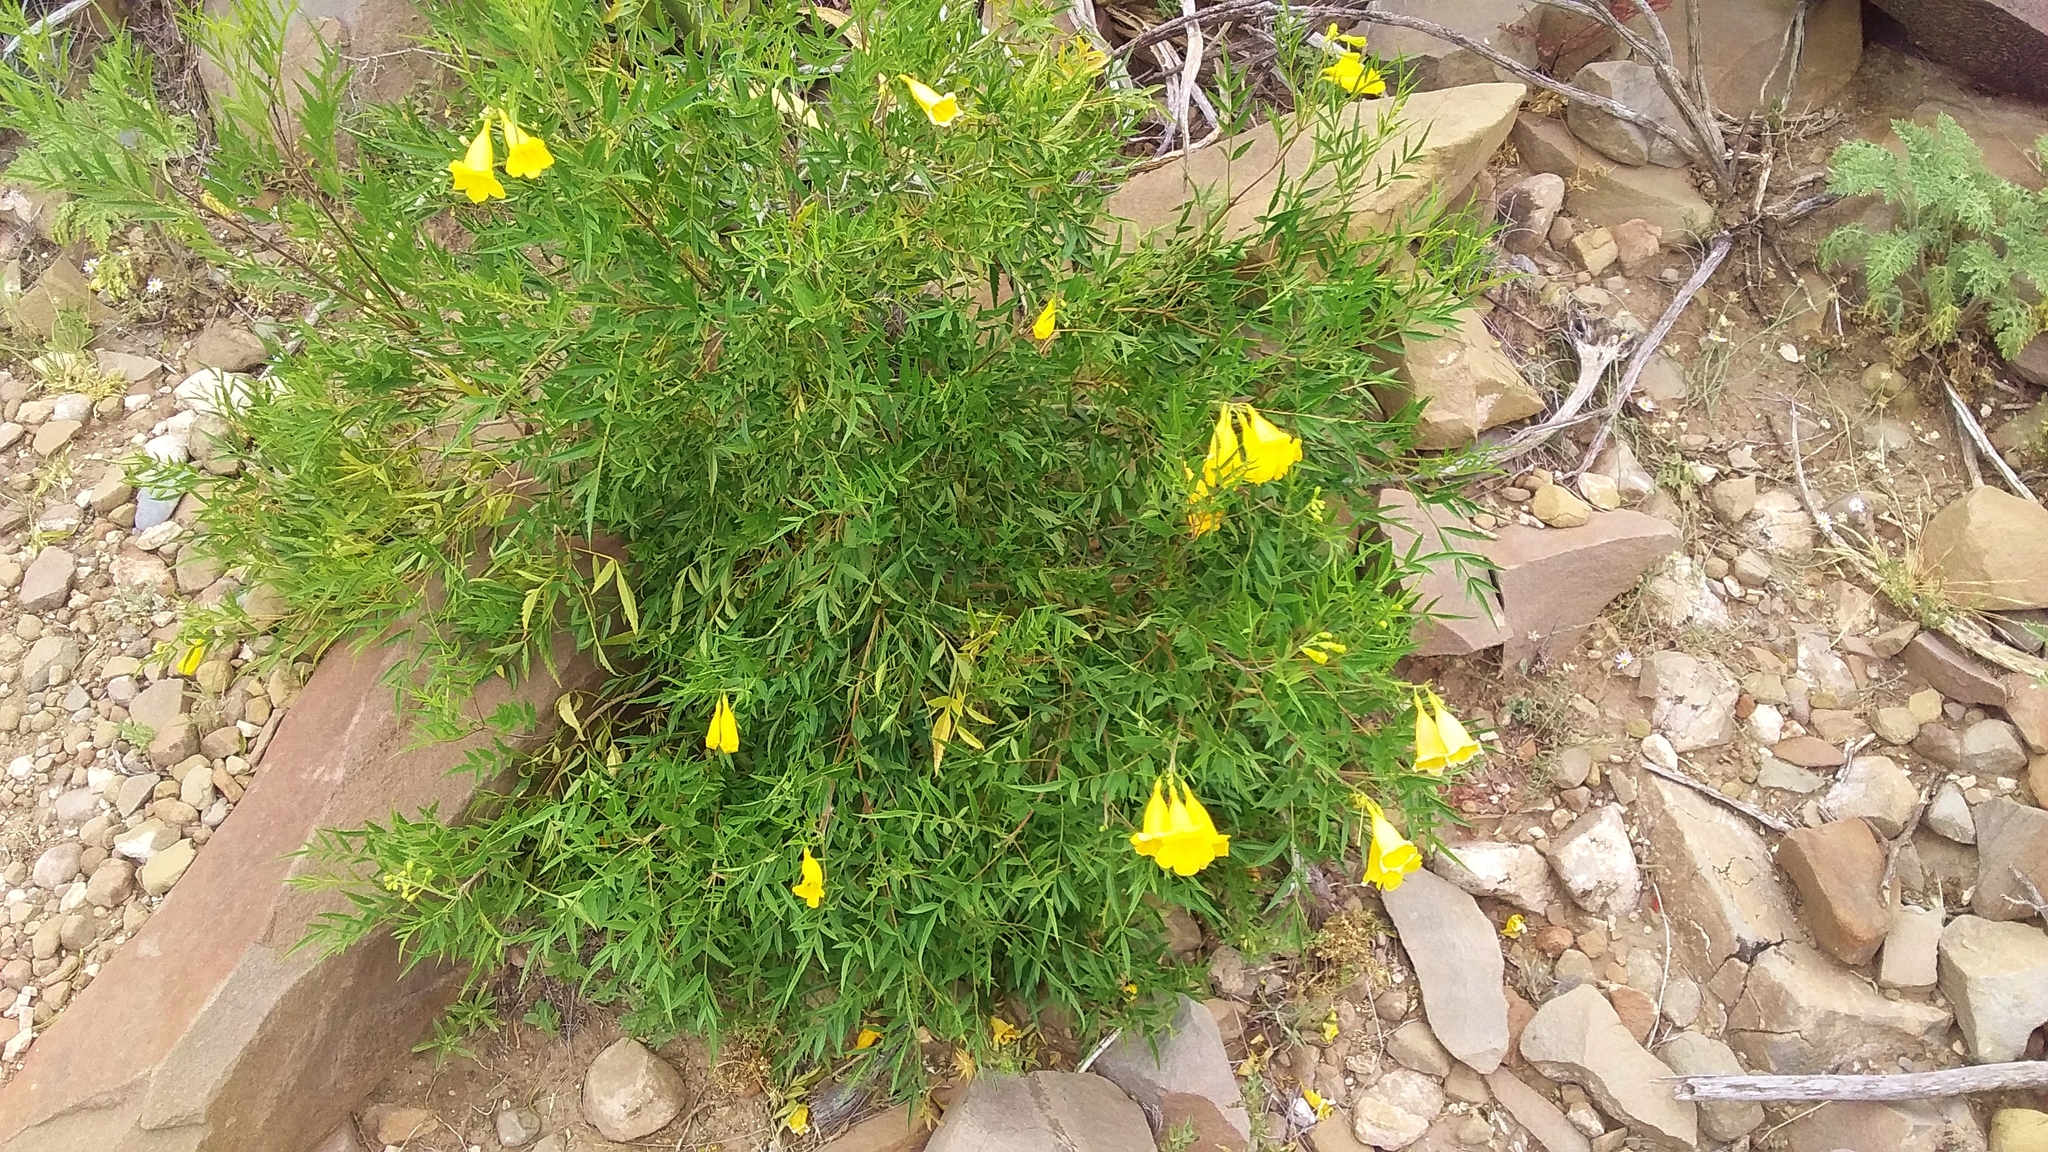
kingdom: Plantae
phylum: Tracheophyta
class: Magnoliopsida
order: Lamiales
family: Bignoniaceae
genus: Tecoma
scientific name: Tecoma stans
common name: Yellow trumpetbush
